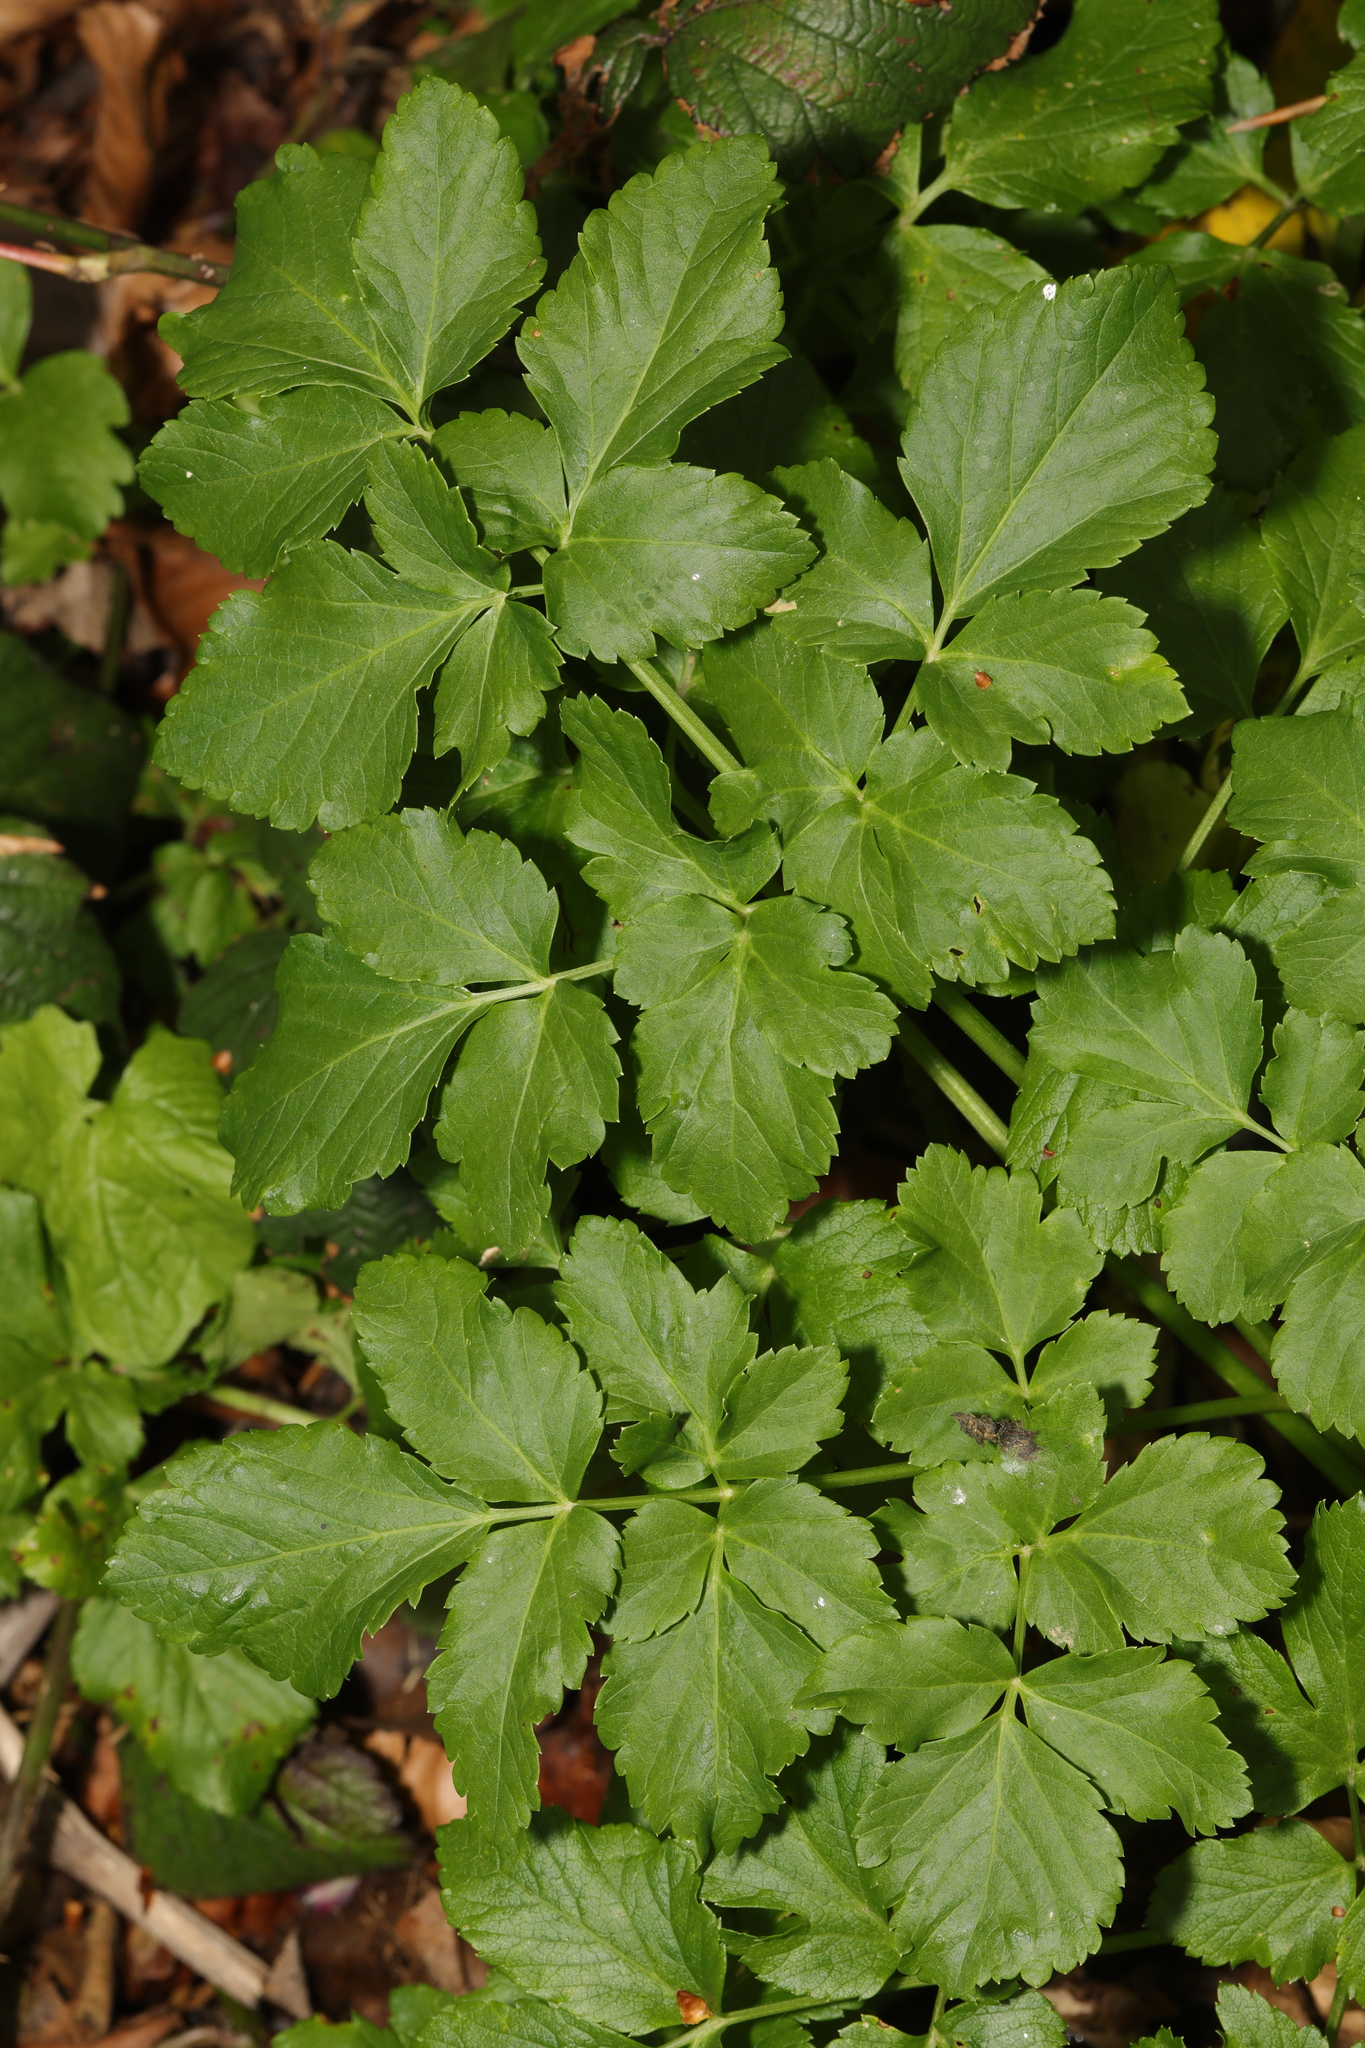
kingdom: Plantae
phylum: Tracheophyta
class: Magnoliopsida
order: Apiales
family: Apiaceae
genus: Smyrnium
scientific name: Smyrnium olusatrum
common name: Alexanders
